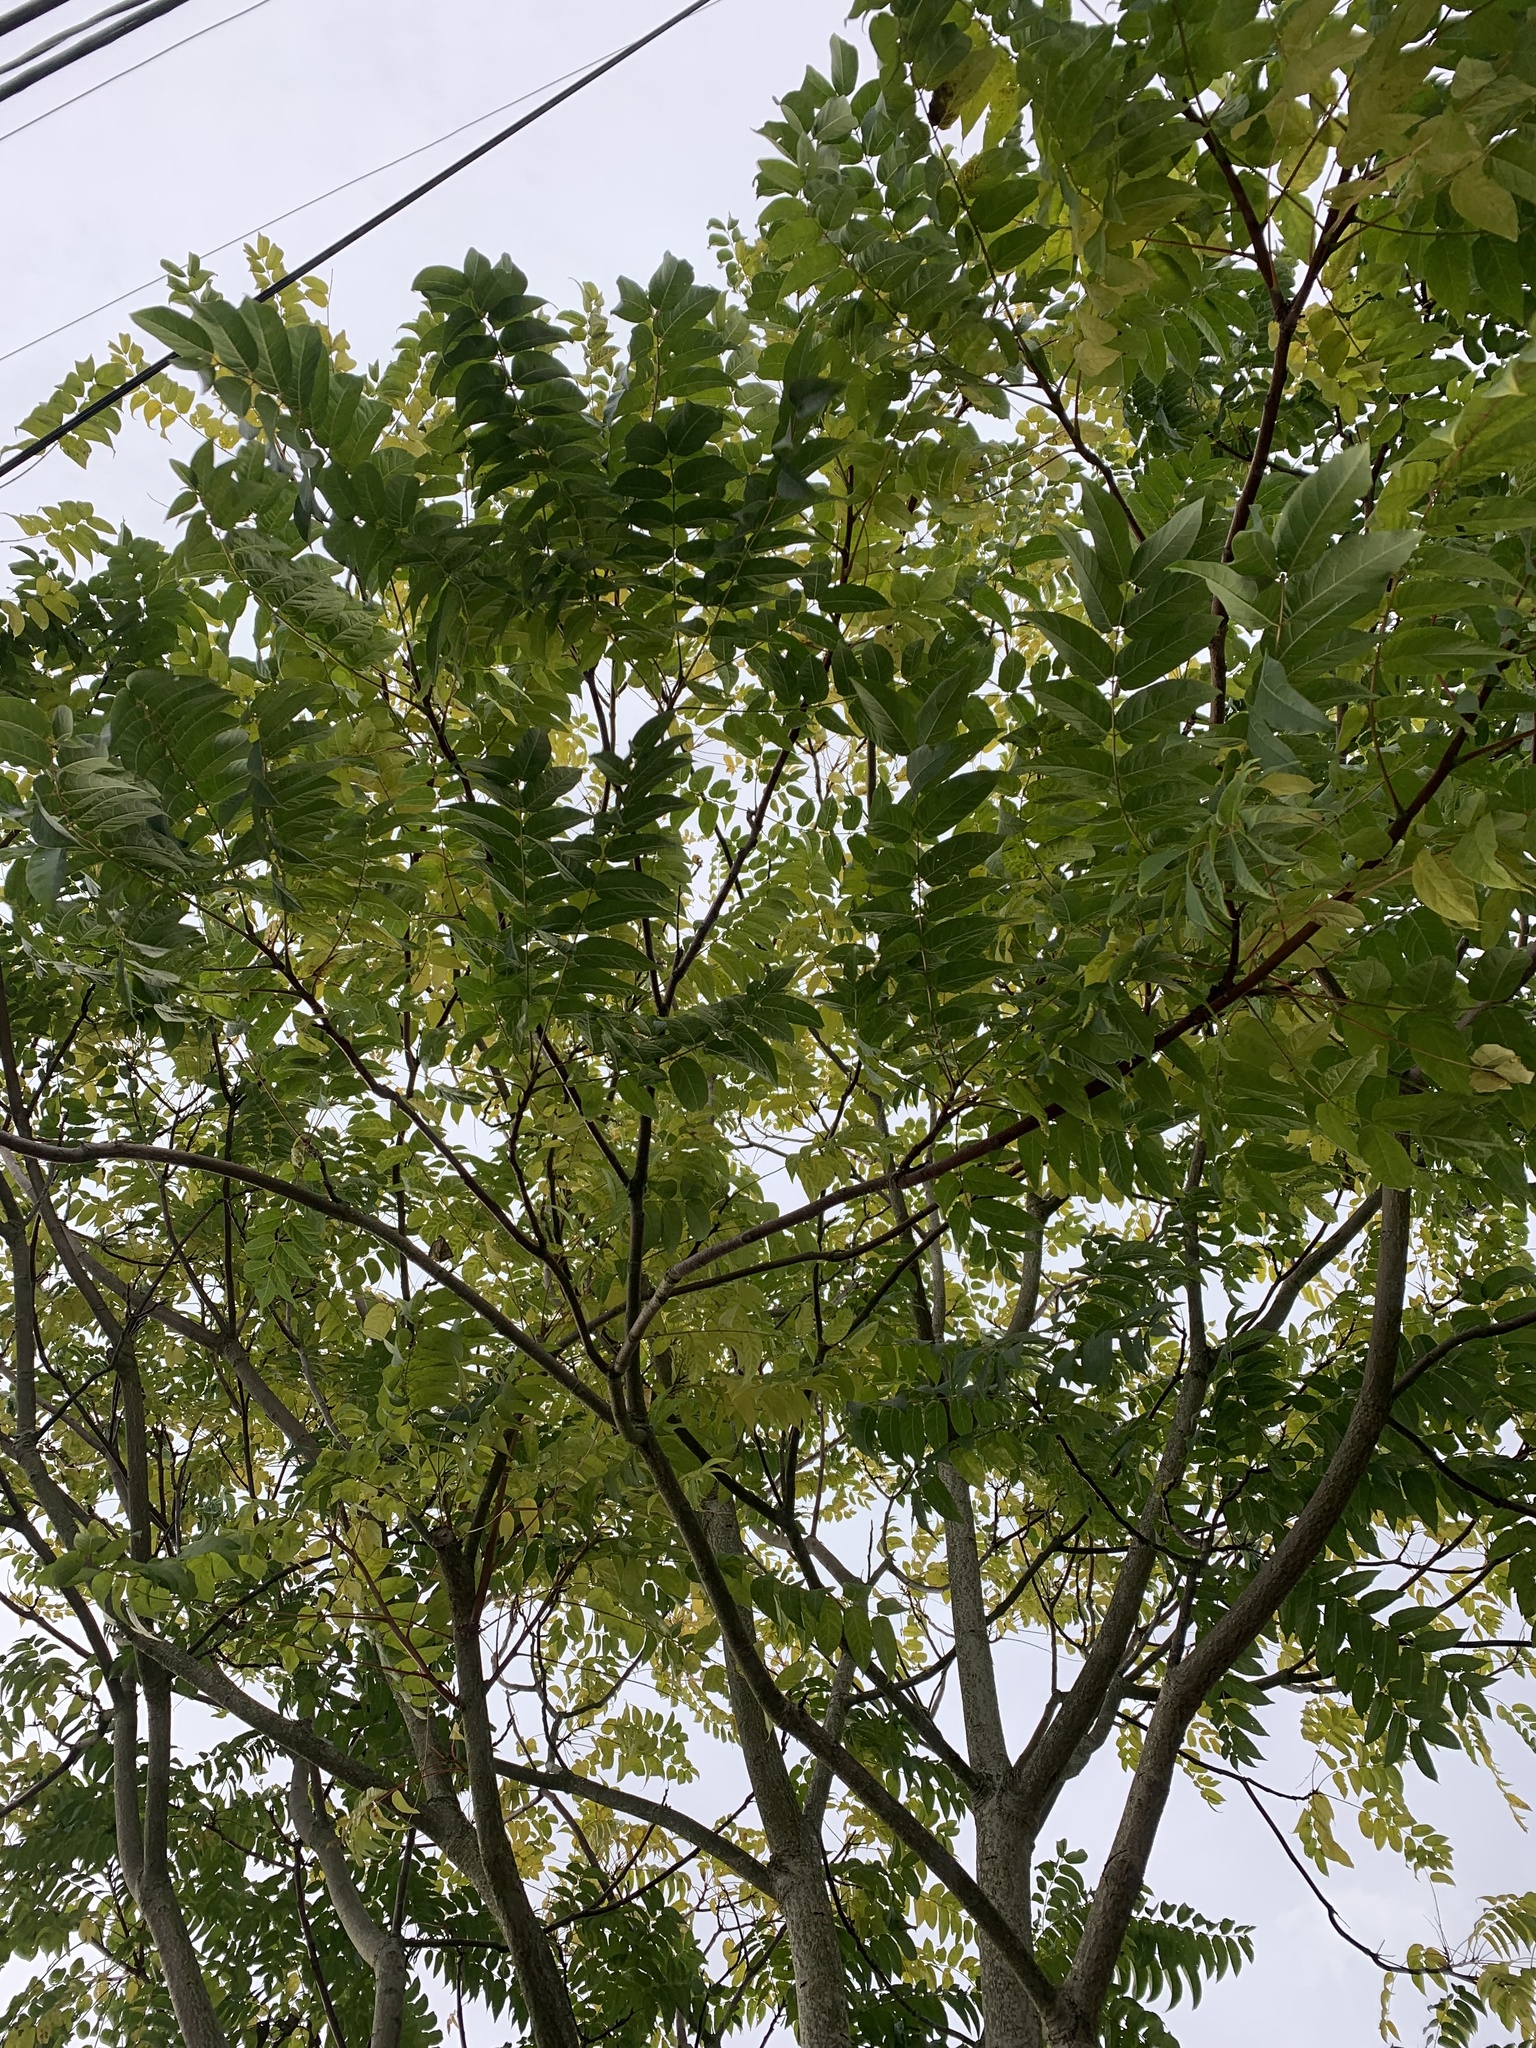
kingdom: Plantae
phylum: Tracheophyta
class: Magnoliopsida
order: Sapindales
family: Simaroubaceae
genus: Ailanthus
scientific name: Ailanthus altissima
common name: Tree-of-heaven
